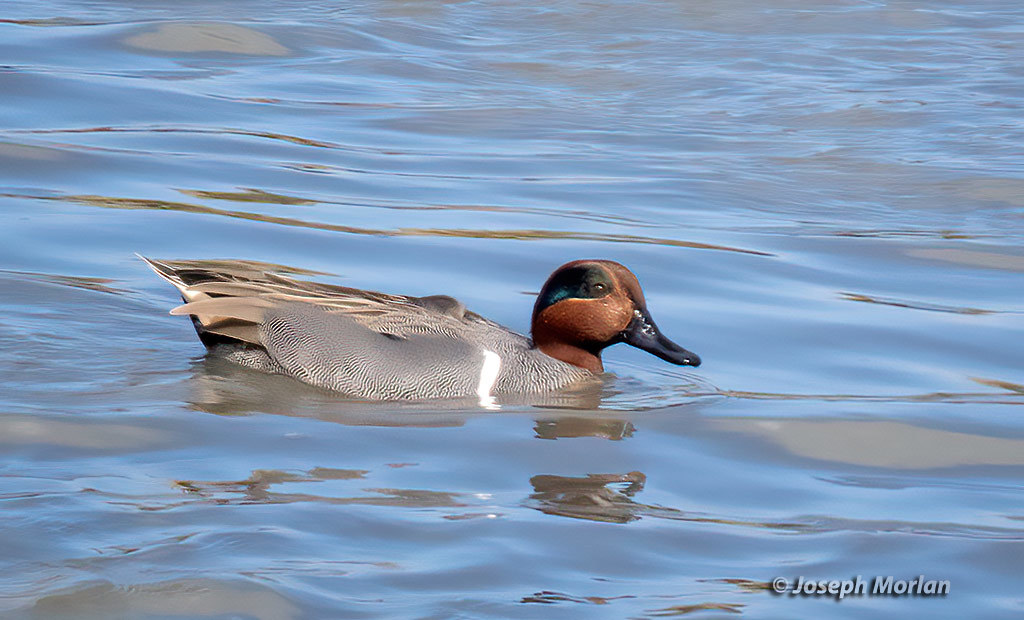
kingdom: Animalia
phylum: Chordata
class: Aves
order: Anseriformes
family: Anatidae
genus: Anas
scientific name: Anas crecca
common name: Eurasian teal
